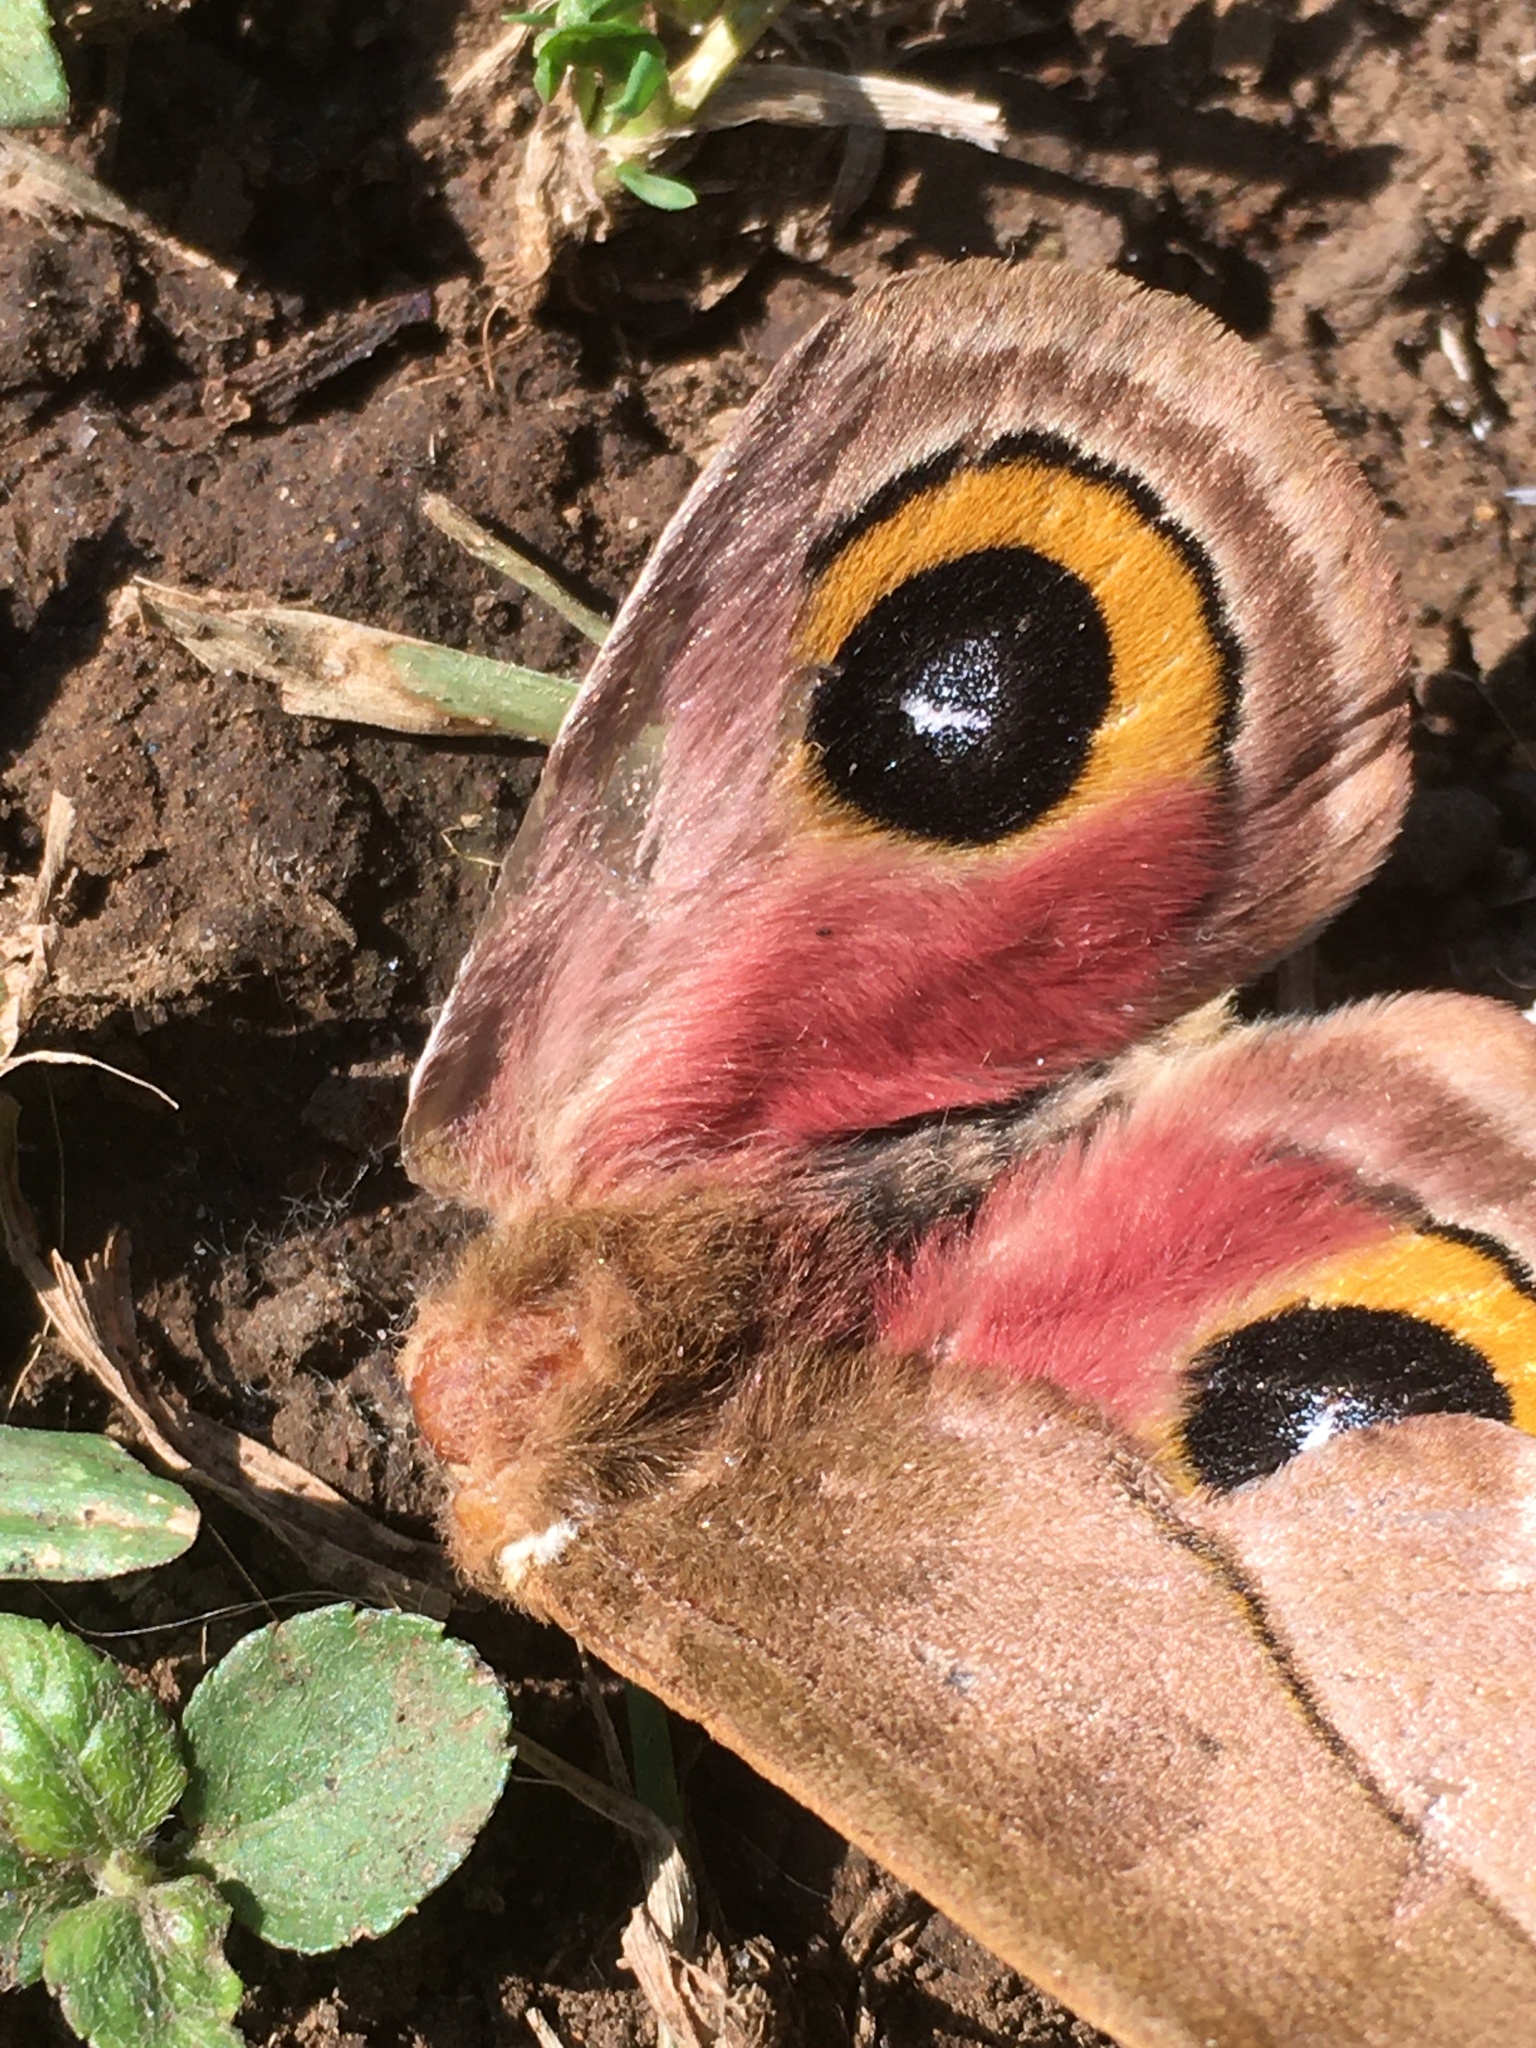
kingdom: Animalia
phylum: Arthropoda
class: Insecta
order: Lepidoptera
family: Saturniidae
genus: Automeris
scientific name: Automeris io
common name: Io moth
